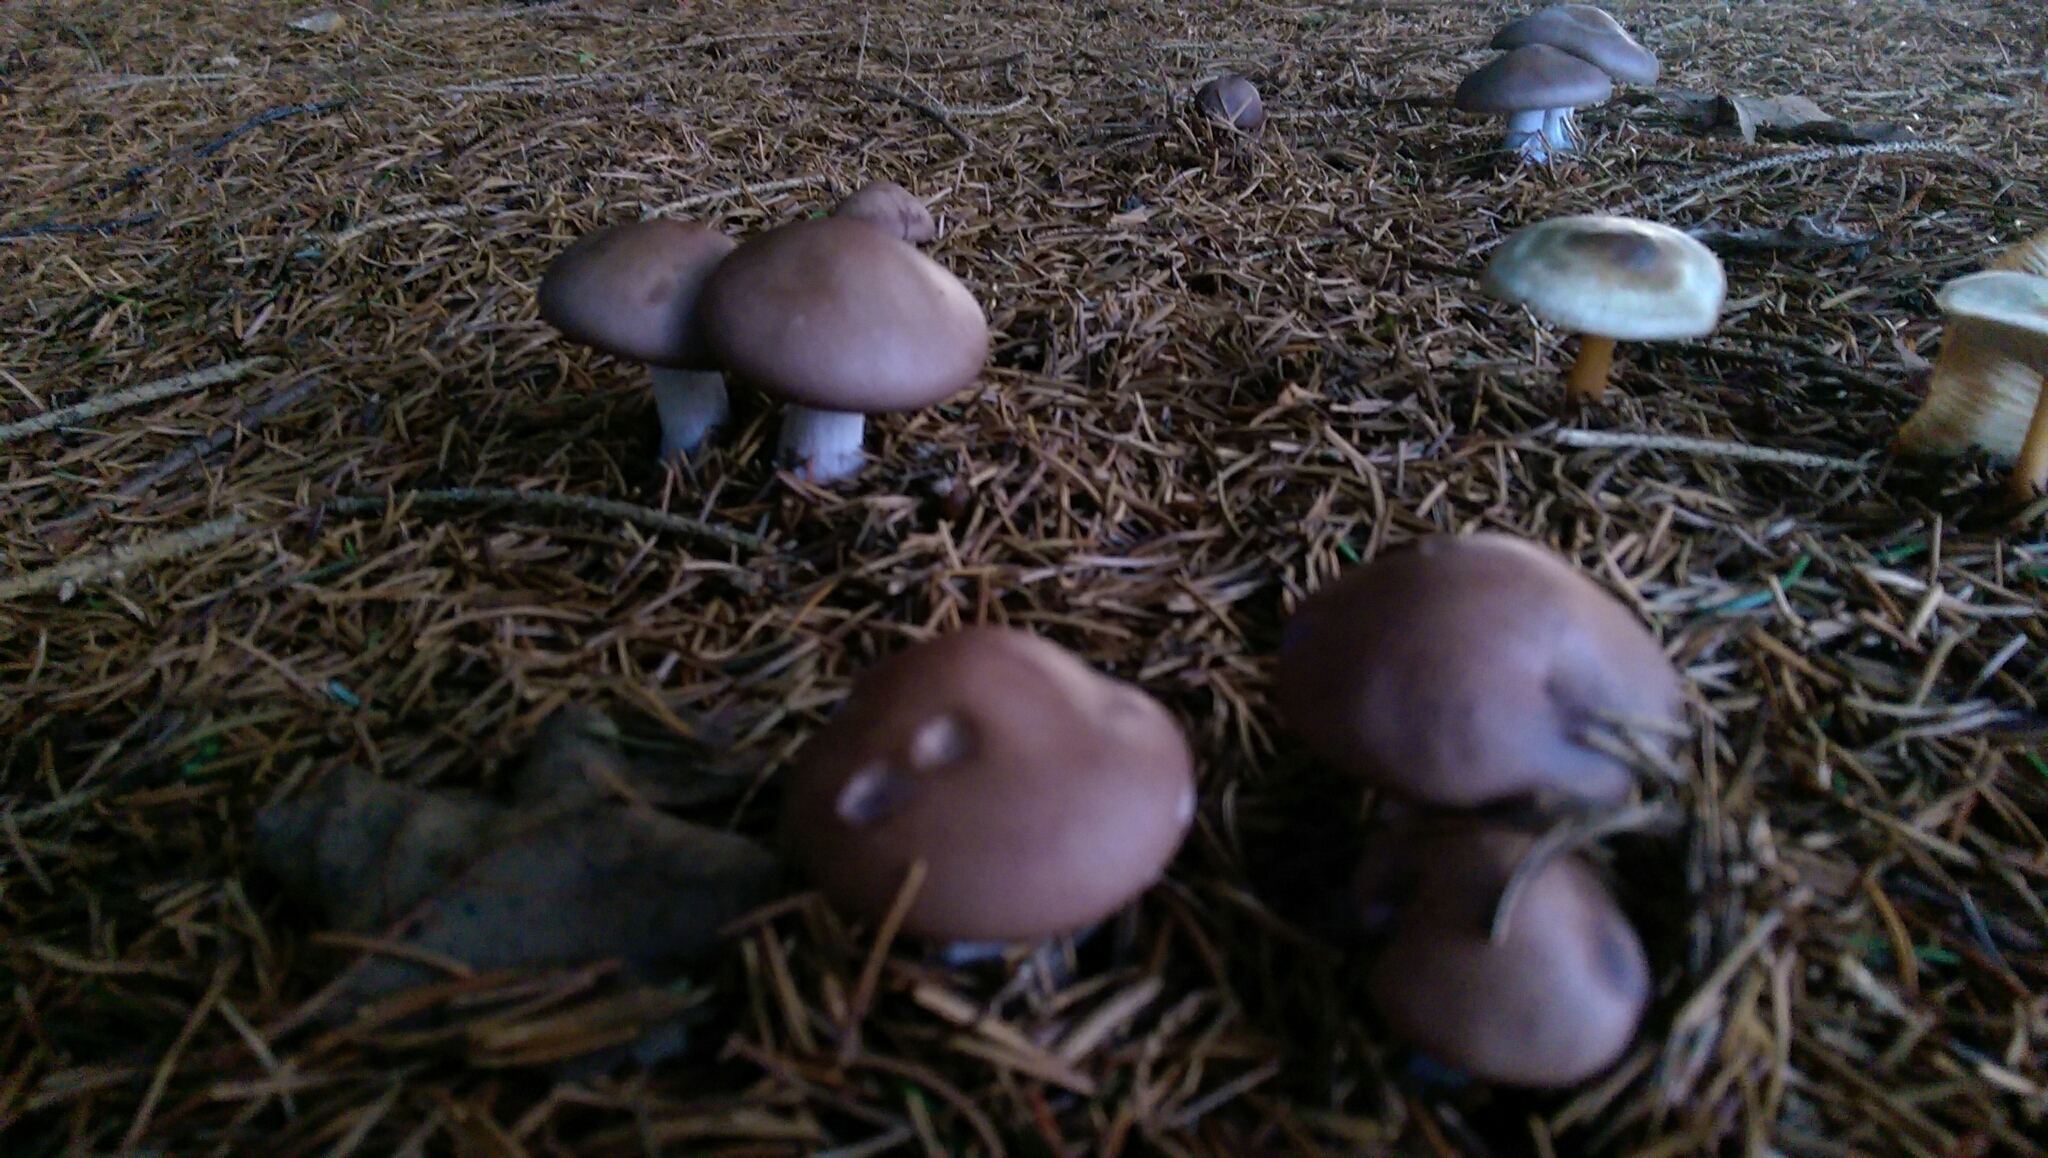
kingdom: Fungi
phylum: Basidiomycota
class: Agaricomycetes
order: Agaricales
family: Tricholomataceae
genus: Collybia
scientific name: Collybia
